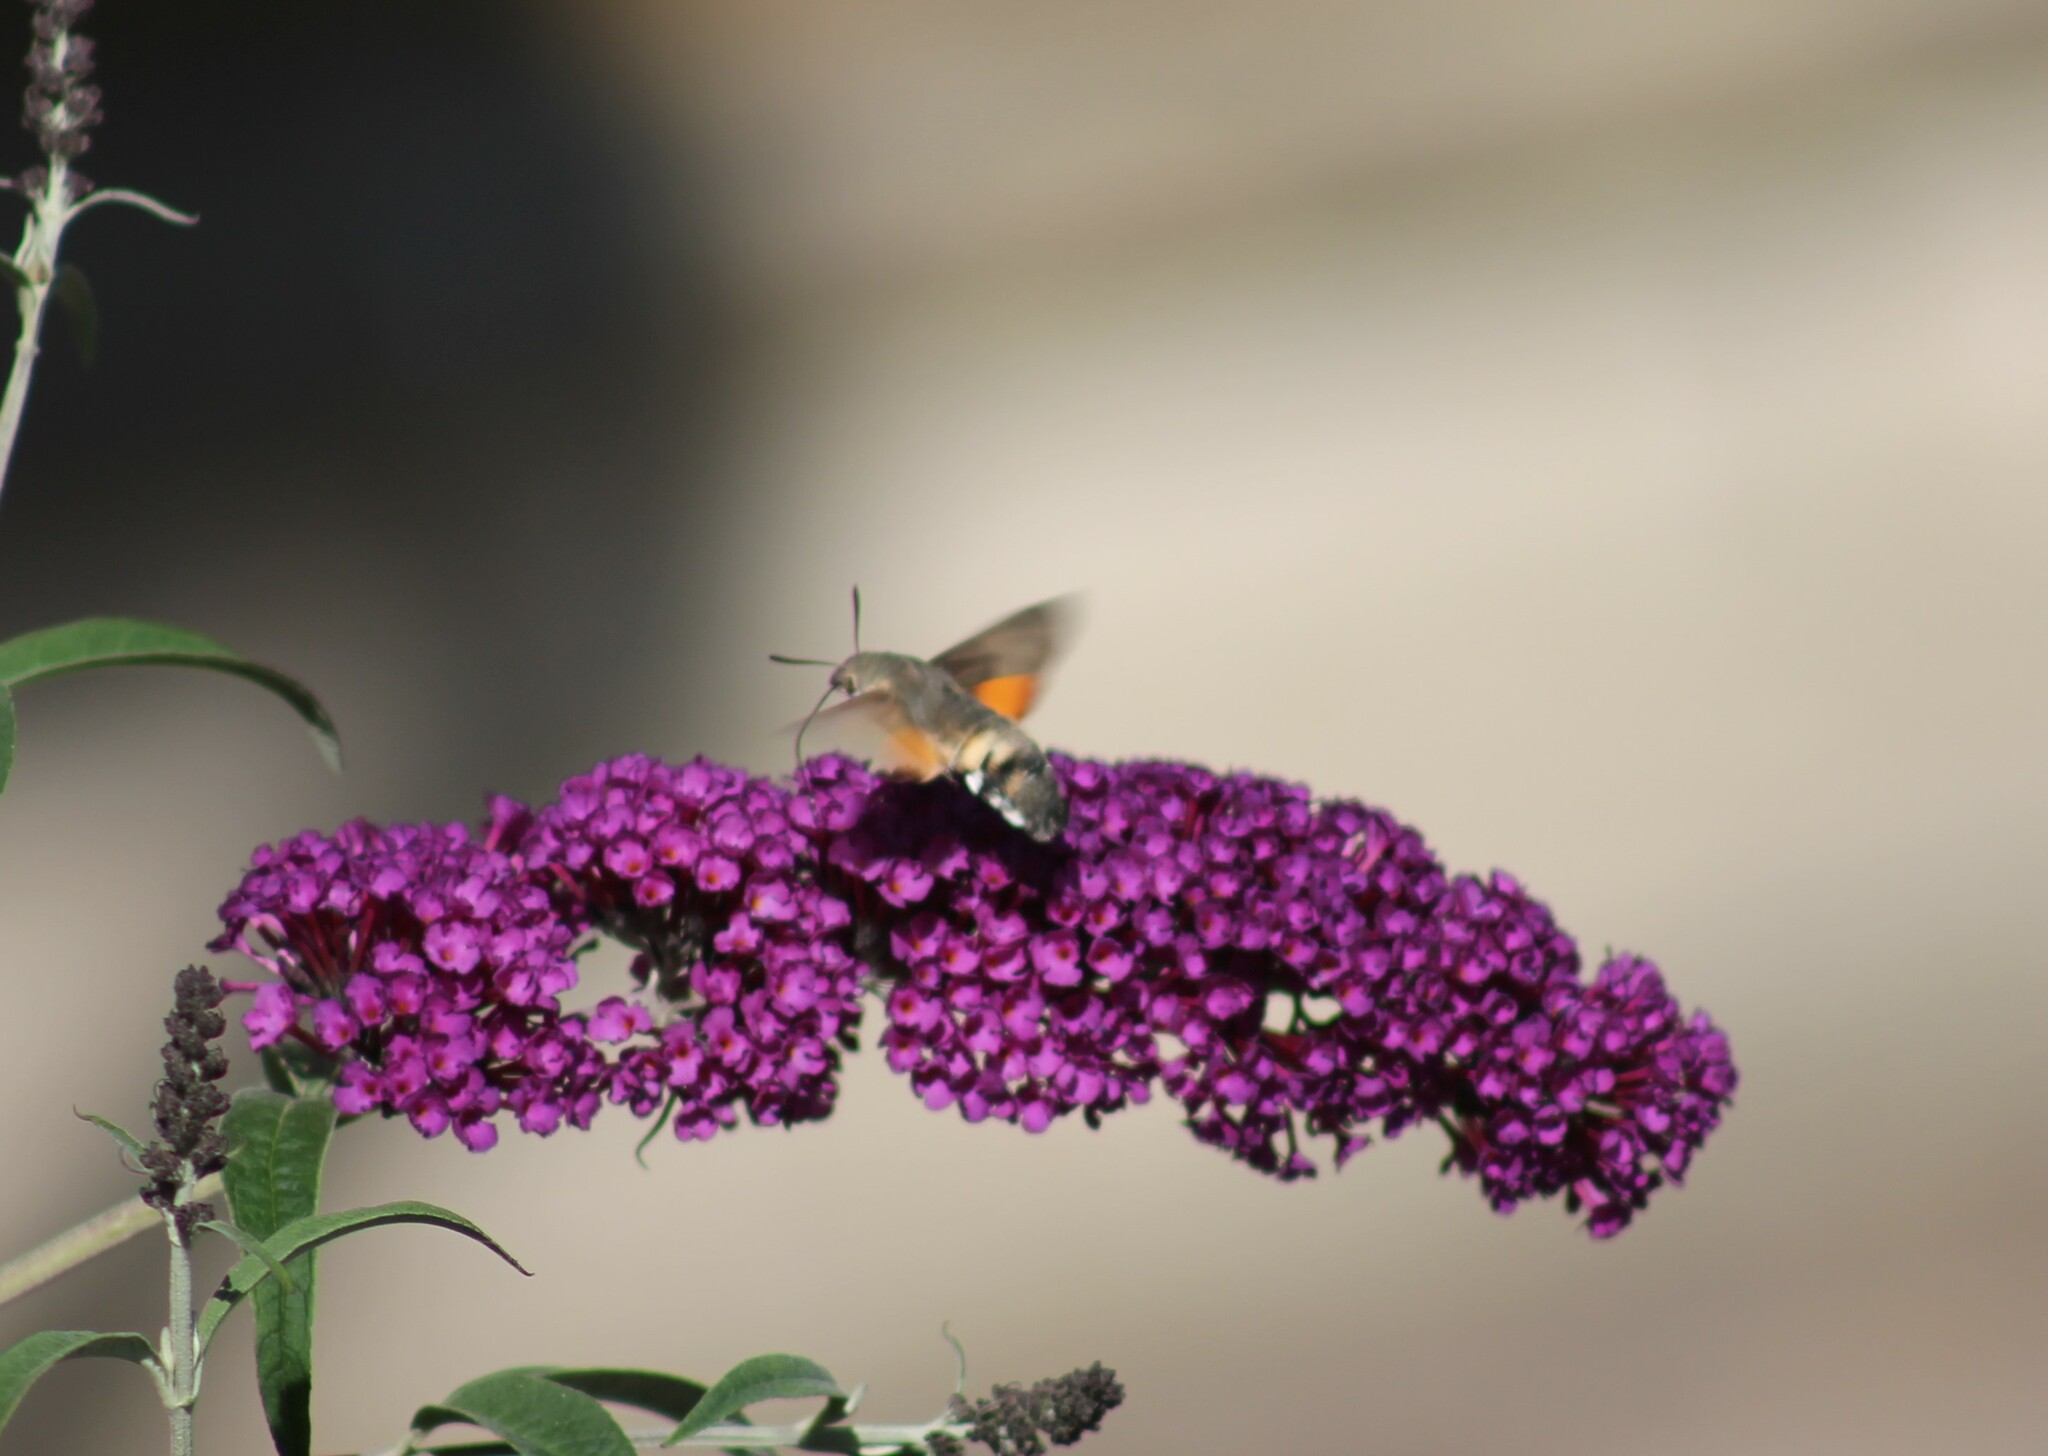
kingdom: Animalia
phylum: Arthropoda
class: Insecta
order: Lepidoptera
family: Sphingidae
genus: Macroglossum
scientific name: Macroglossum stellatarum
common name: Humming-bird hawk-moth
